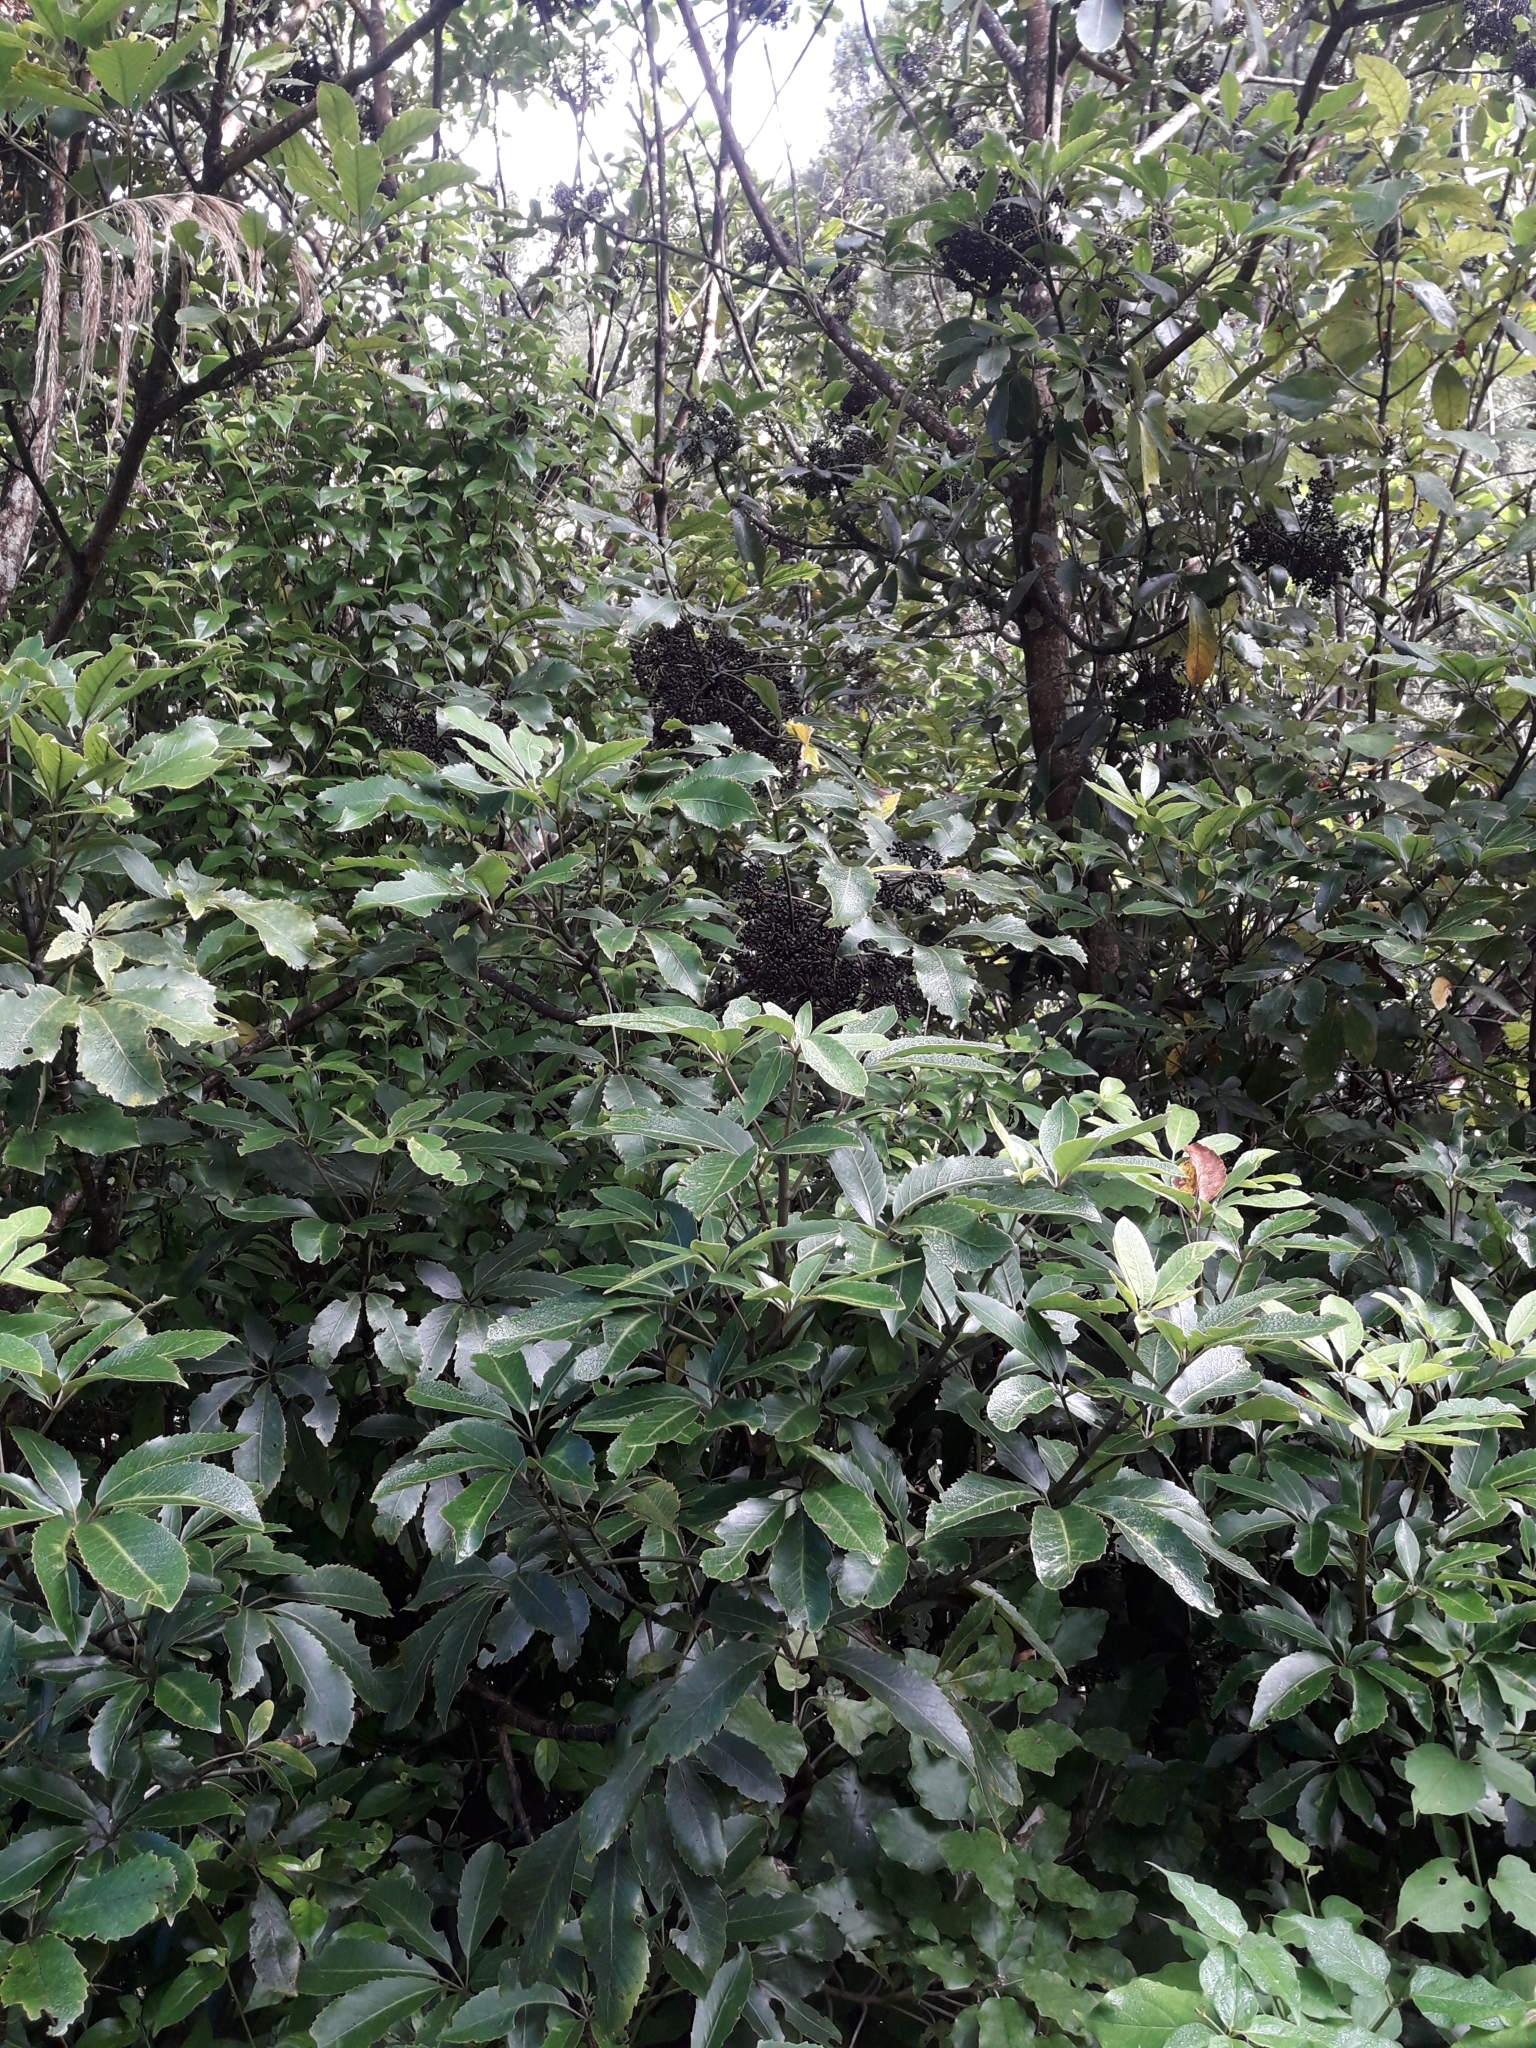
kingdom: Plantae
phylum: Tracheophyta
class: Magnoliopsida
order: Apiales
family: Araliaceae
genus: Neopanax
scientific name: Neopanax arboreus
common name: Five-fingers
